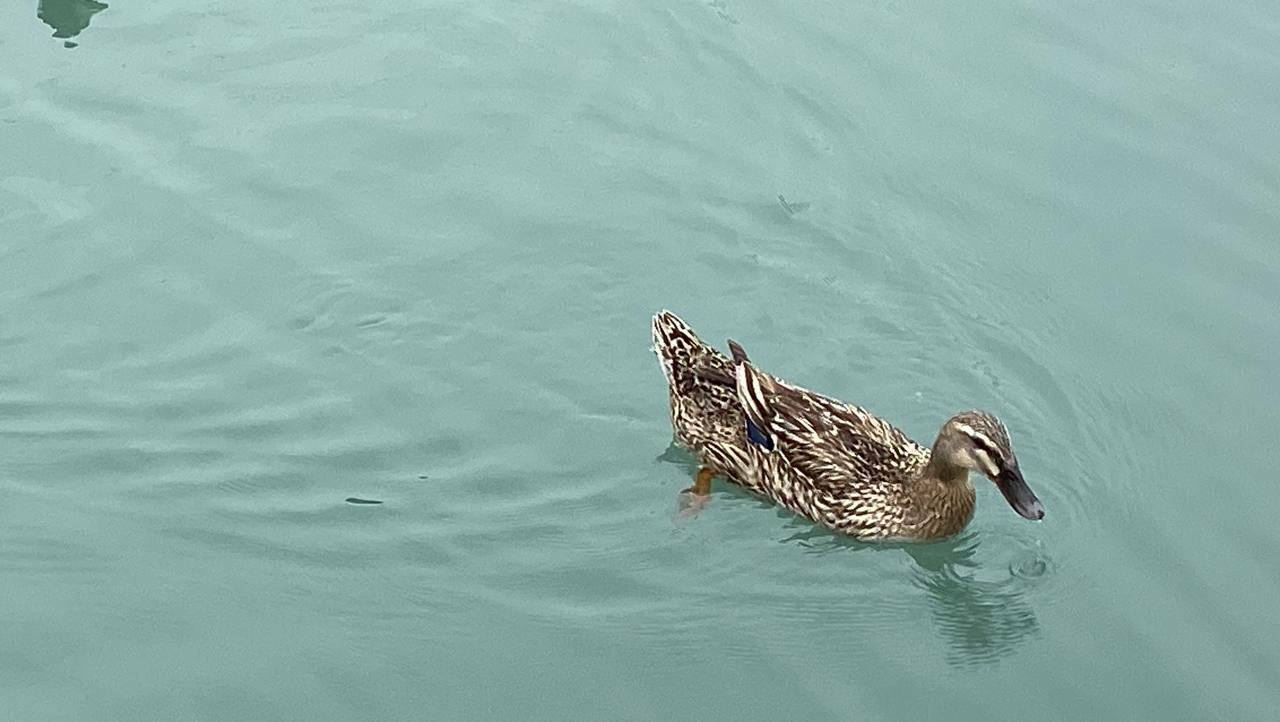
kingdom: Animalia
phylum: Chordata
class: Aves
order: Anseriformes
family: Anatidae
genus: Anas
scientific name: Anas platyrhynchos
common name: Mallard
